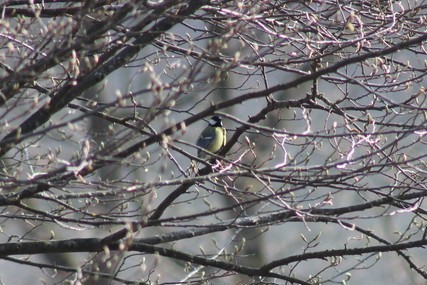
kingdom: Animalia
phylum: Chordata
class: Aves
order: Passeriformes
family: Paridae
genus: Parus
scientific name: Parus major
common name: Great tit
